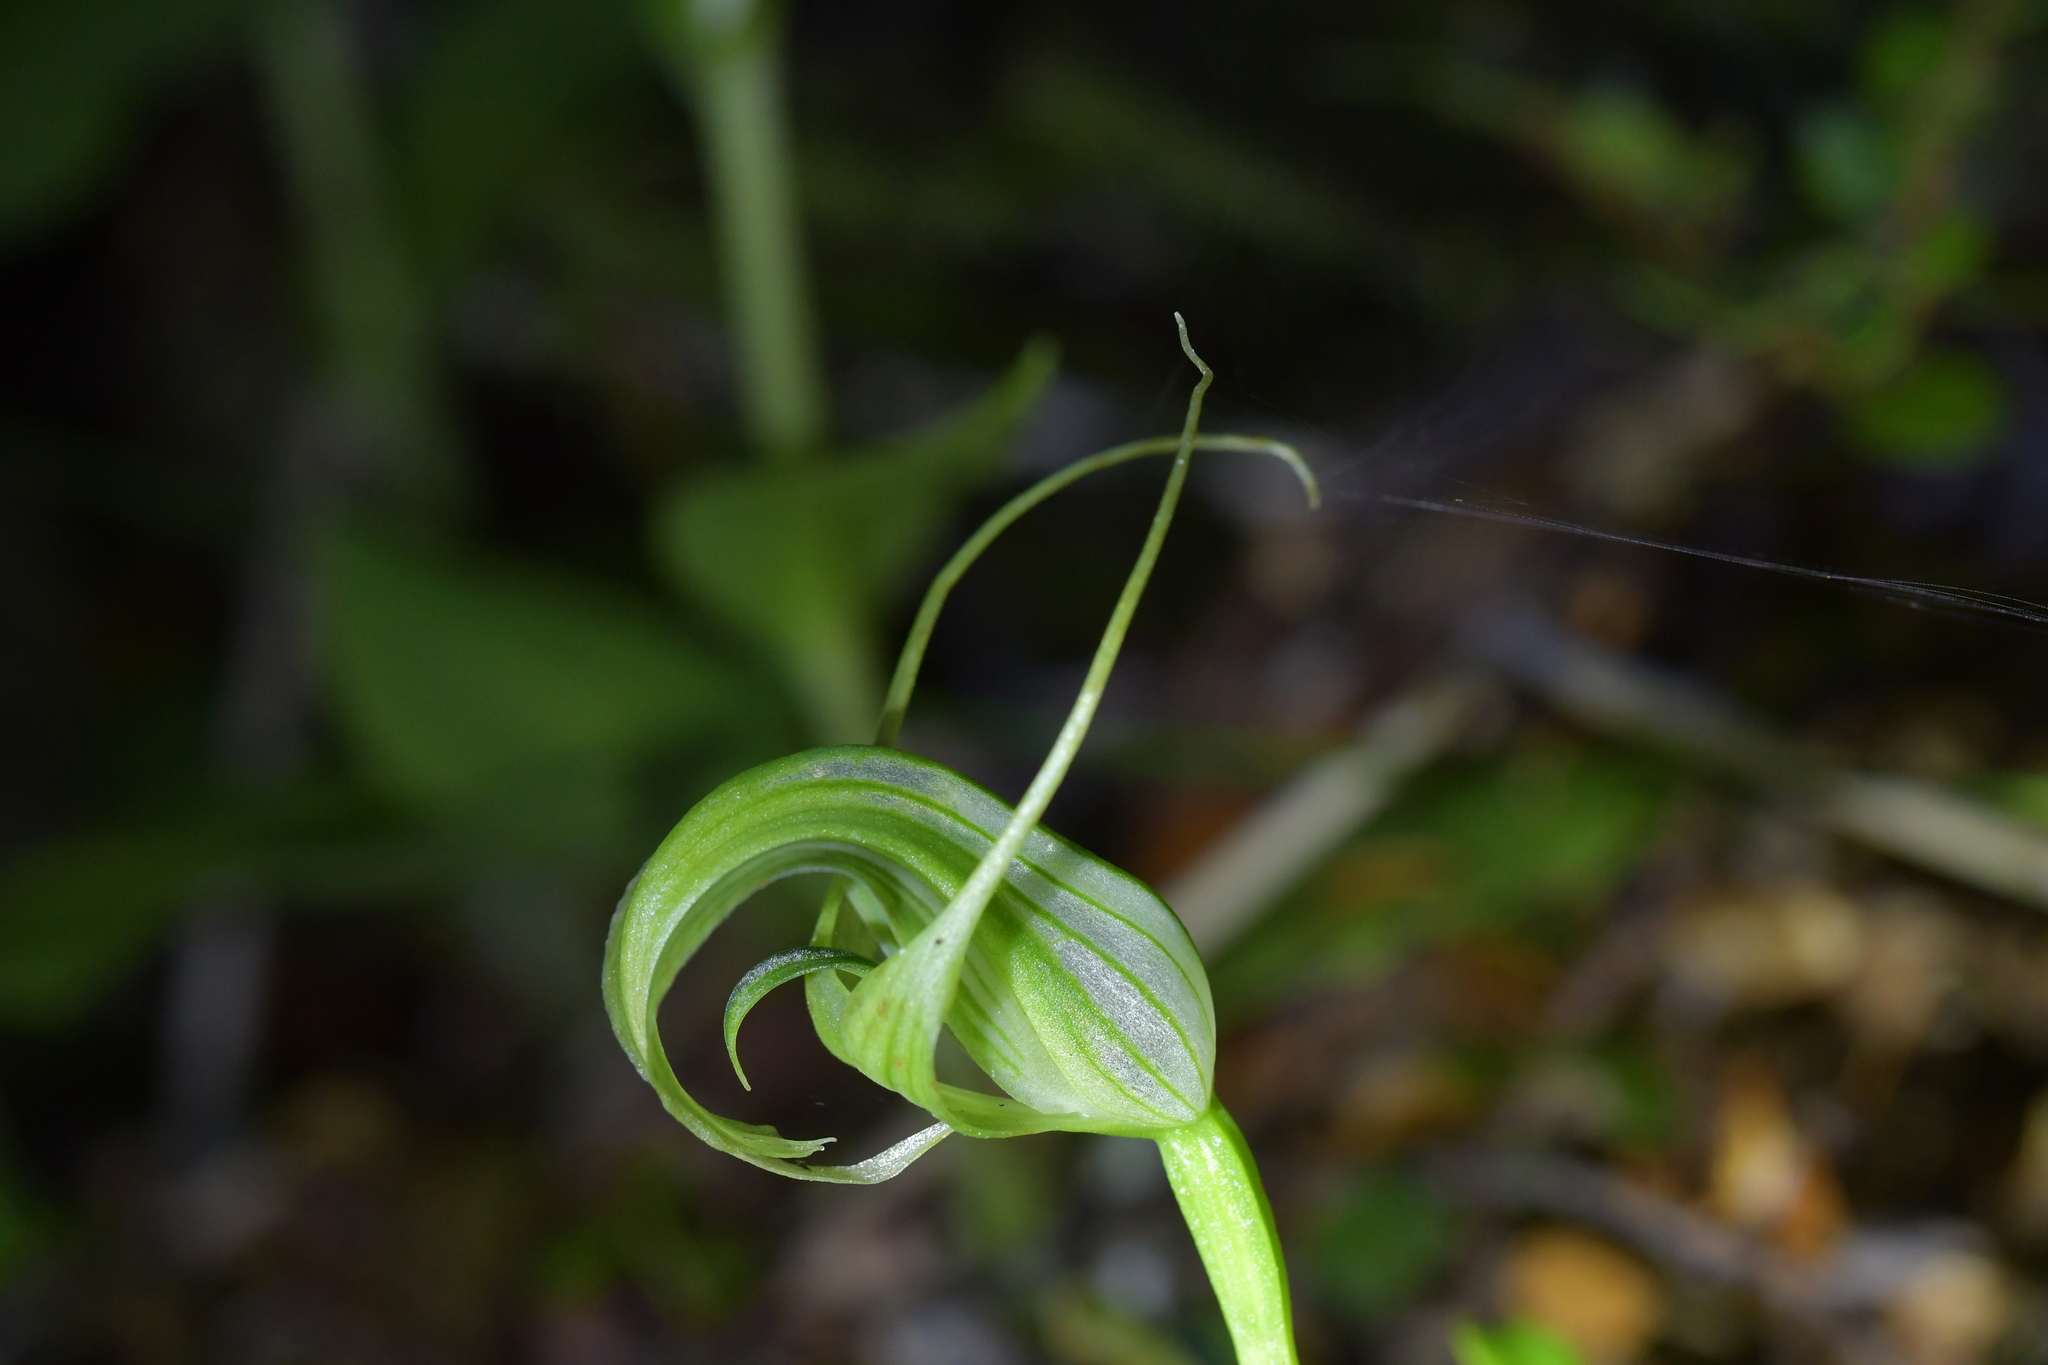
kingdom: Plantae
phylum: Tracheophyta
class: Liliopsida
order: Asparagales
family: Orchidaceae
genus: Pterostylis
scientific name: Pterostylis oliveri
